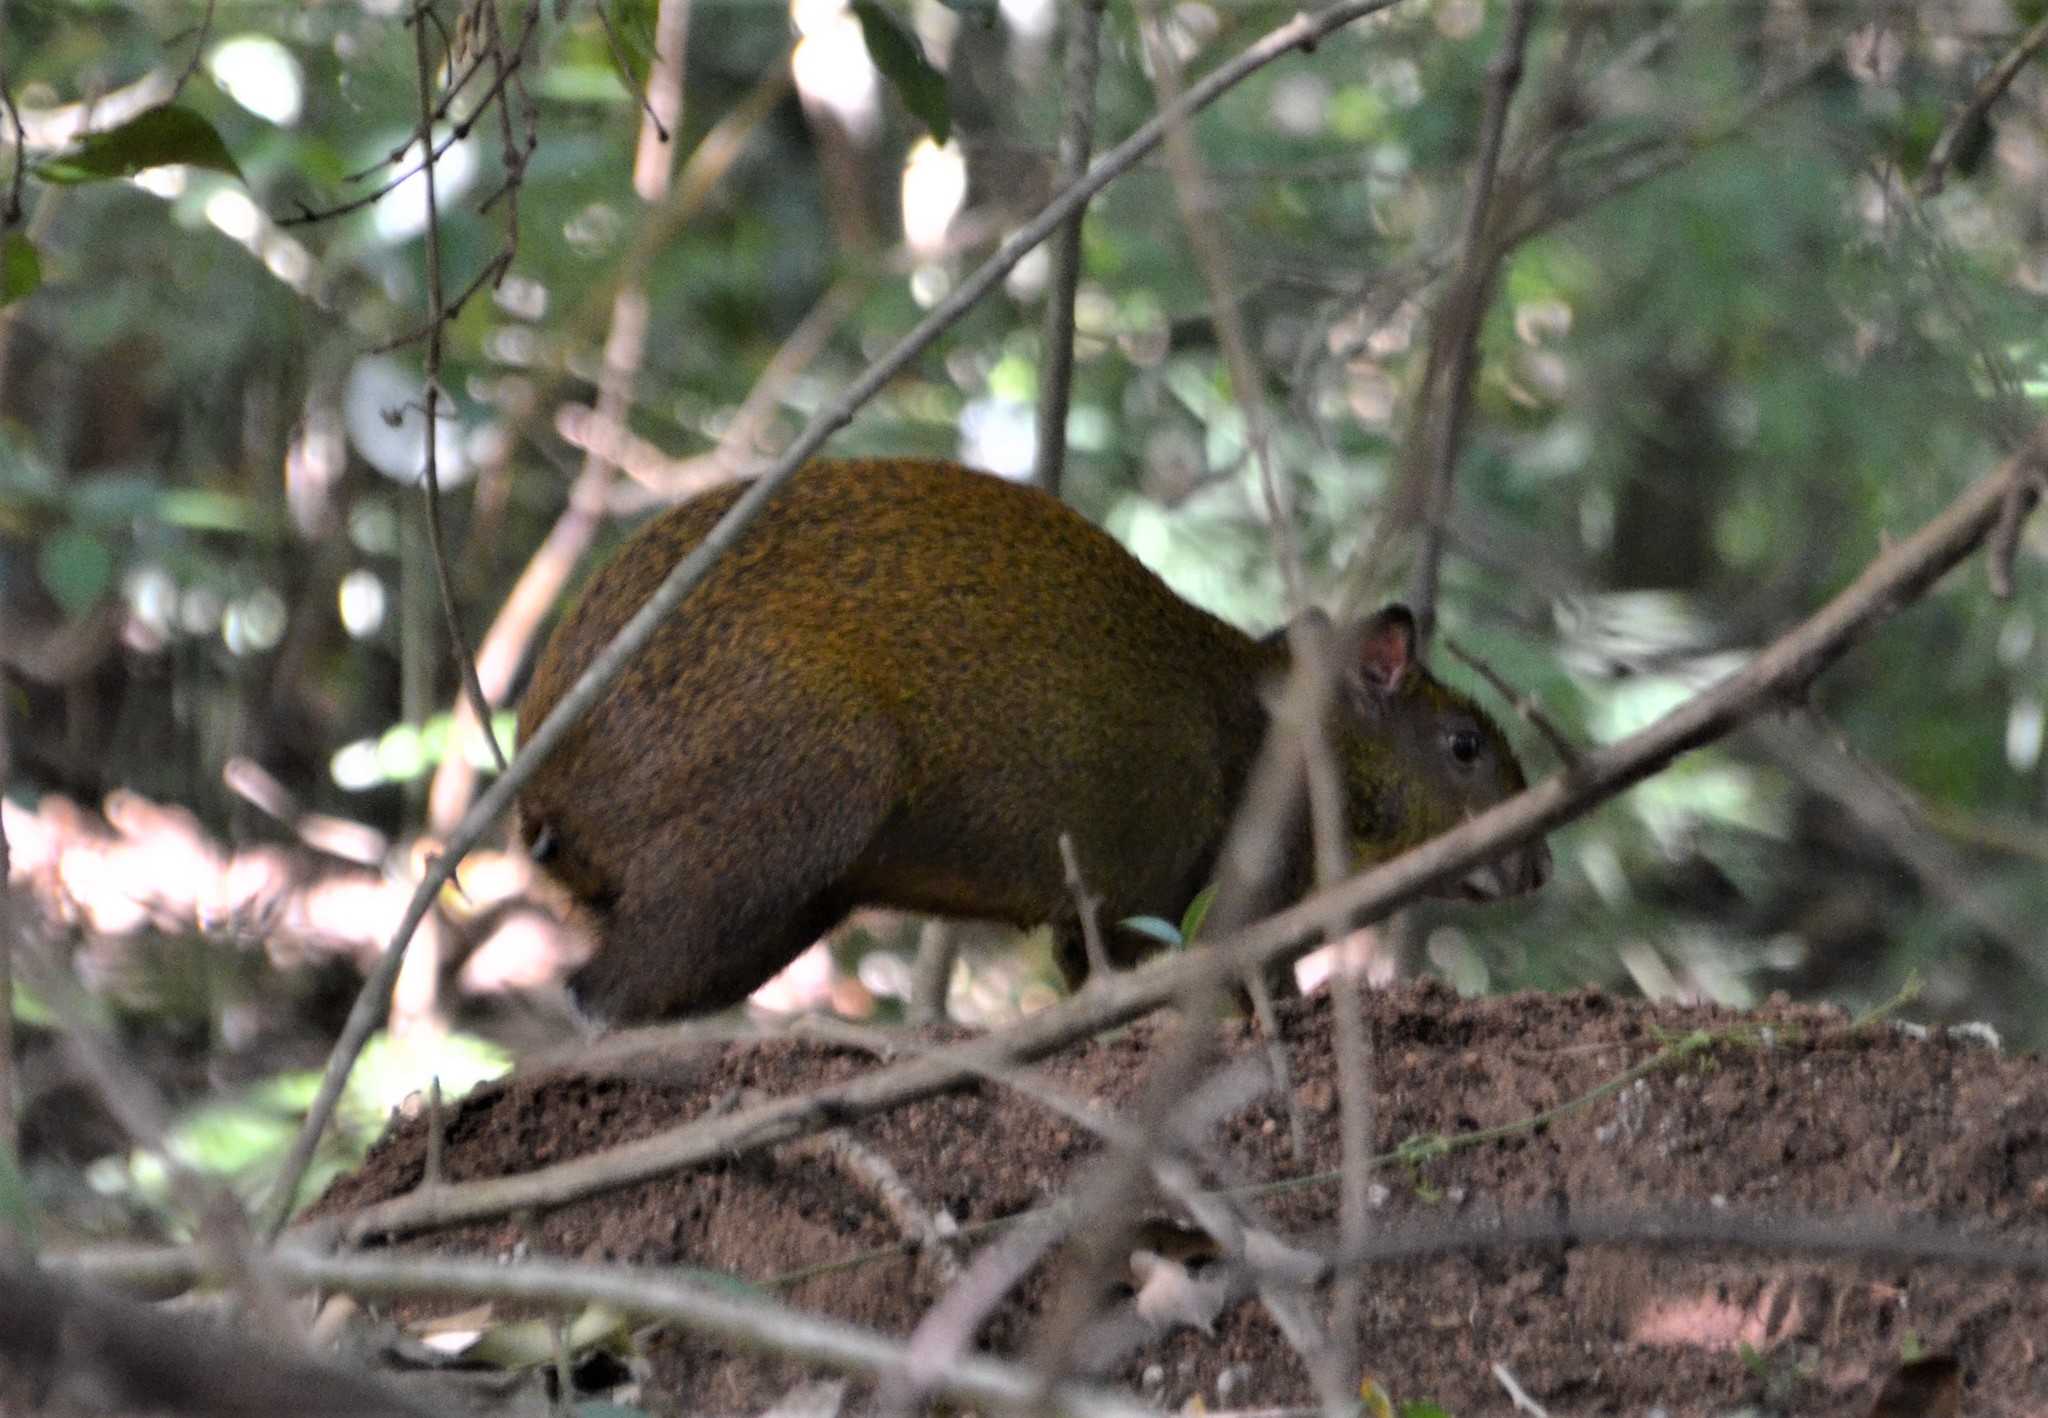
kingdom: Animalia
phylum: Chordata
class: Mammalia
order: Rodentia
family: Dasyproctidae
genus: Dasyprocta
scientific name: Dasyprocta punctata
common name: Central american agouti
